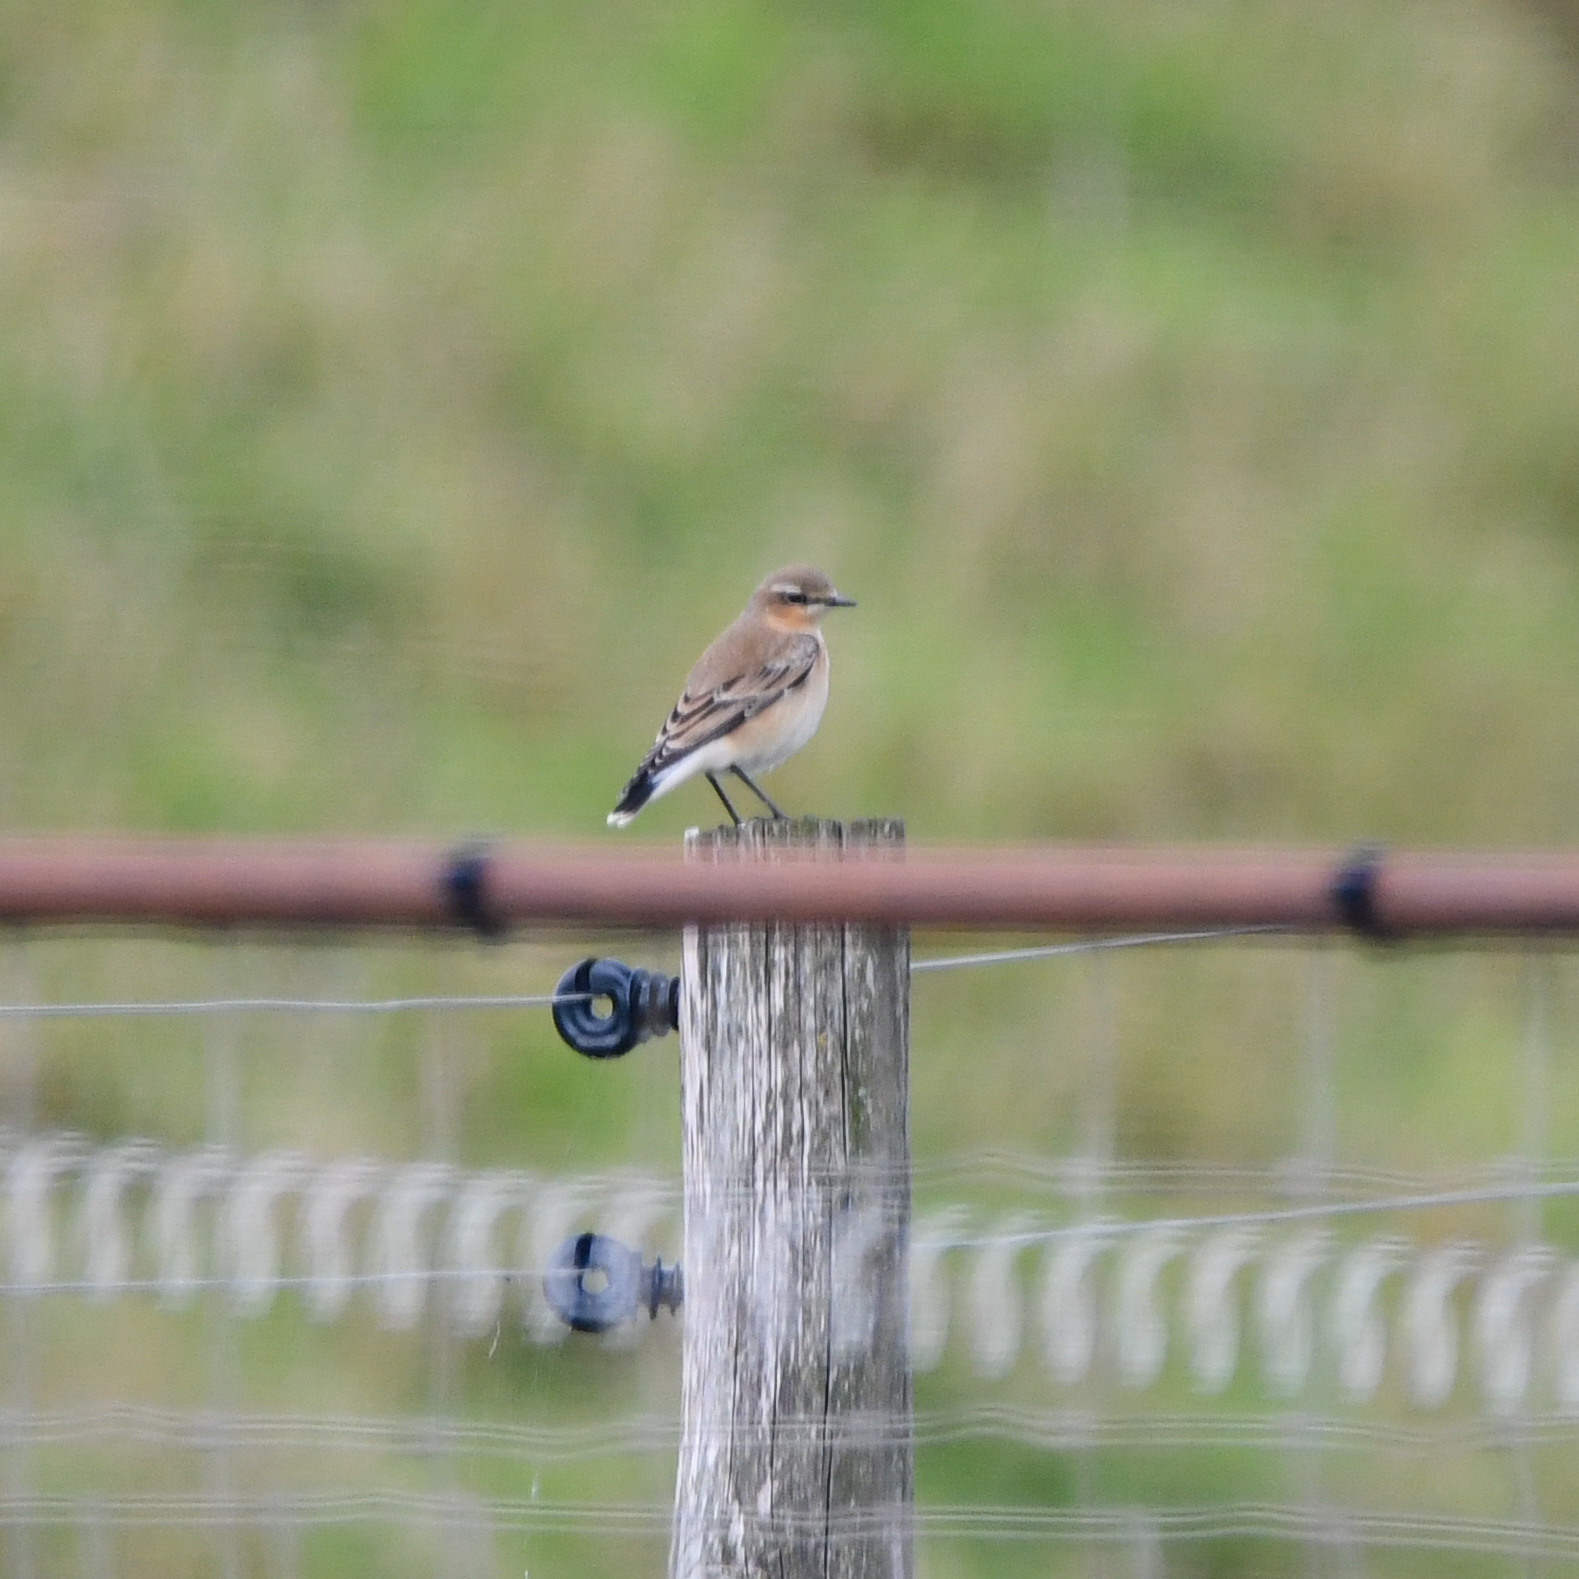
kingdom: Animalia
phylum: Chordata
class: Aves
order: Passeriformes
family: Muscicapidae
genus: Oenanthe
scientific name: Oenanthe oenanthe
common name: Northern wheatear
